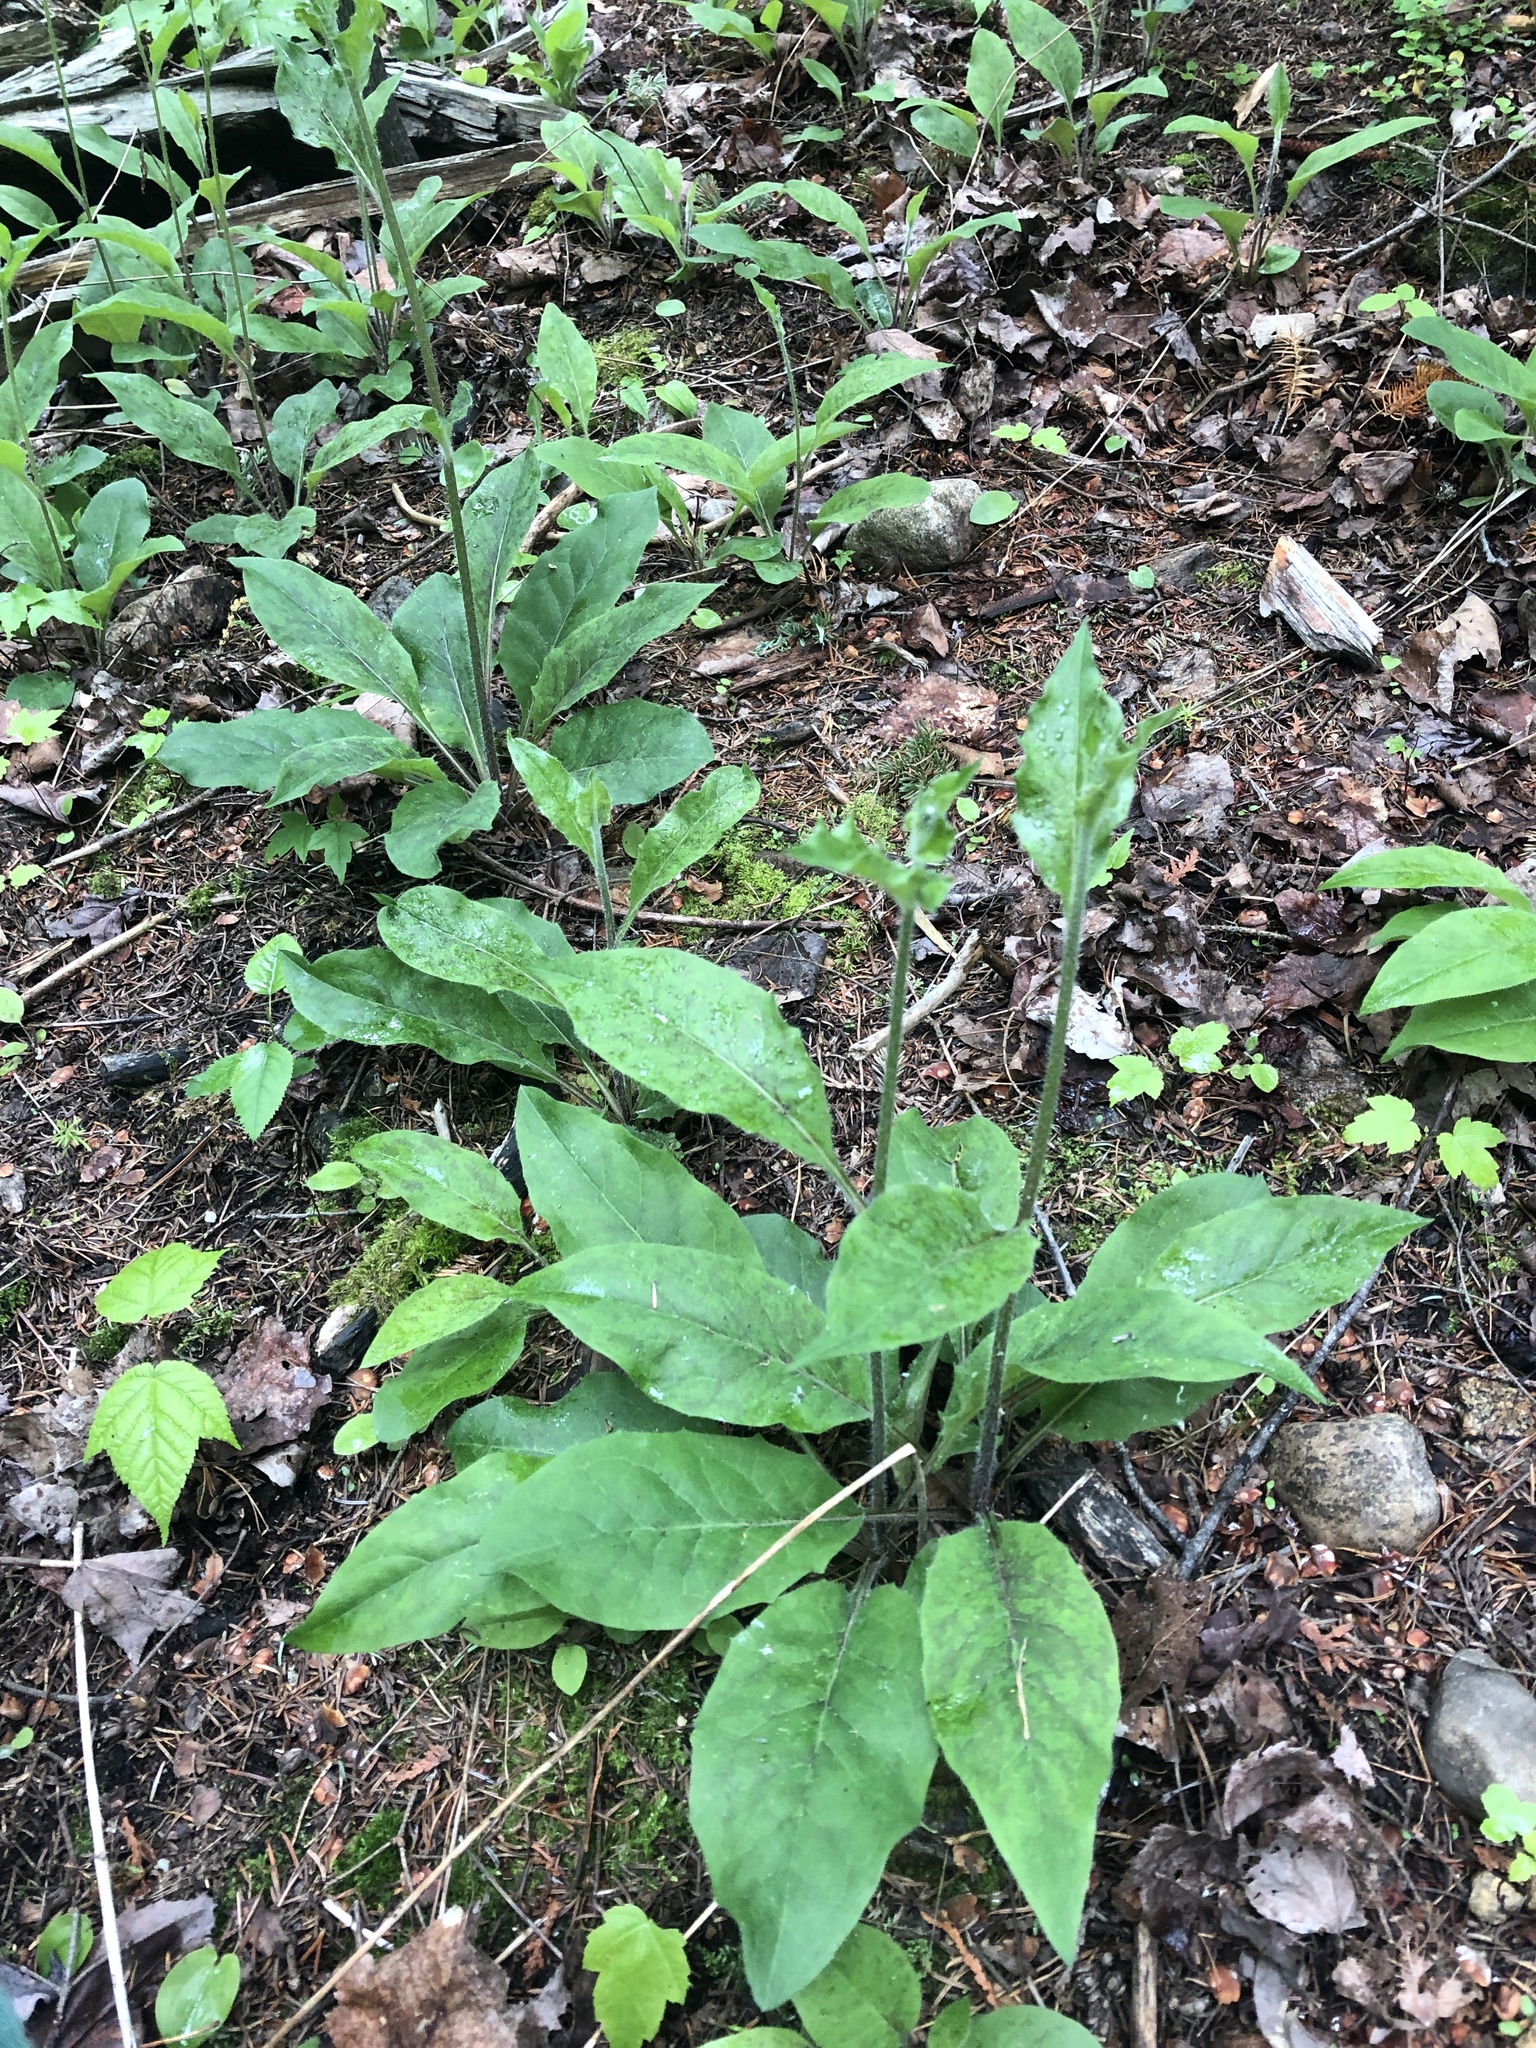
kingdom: Plantae
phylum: Tracheophyta
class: Magnoliopsida
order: Asterales
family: Asteraceae
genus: Hieracium
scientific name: Hieracium lachenalii
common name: Common hawkweed
